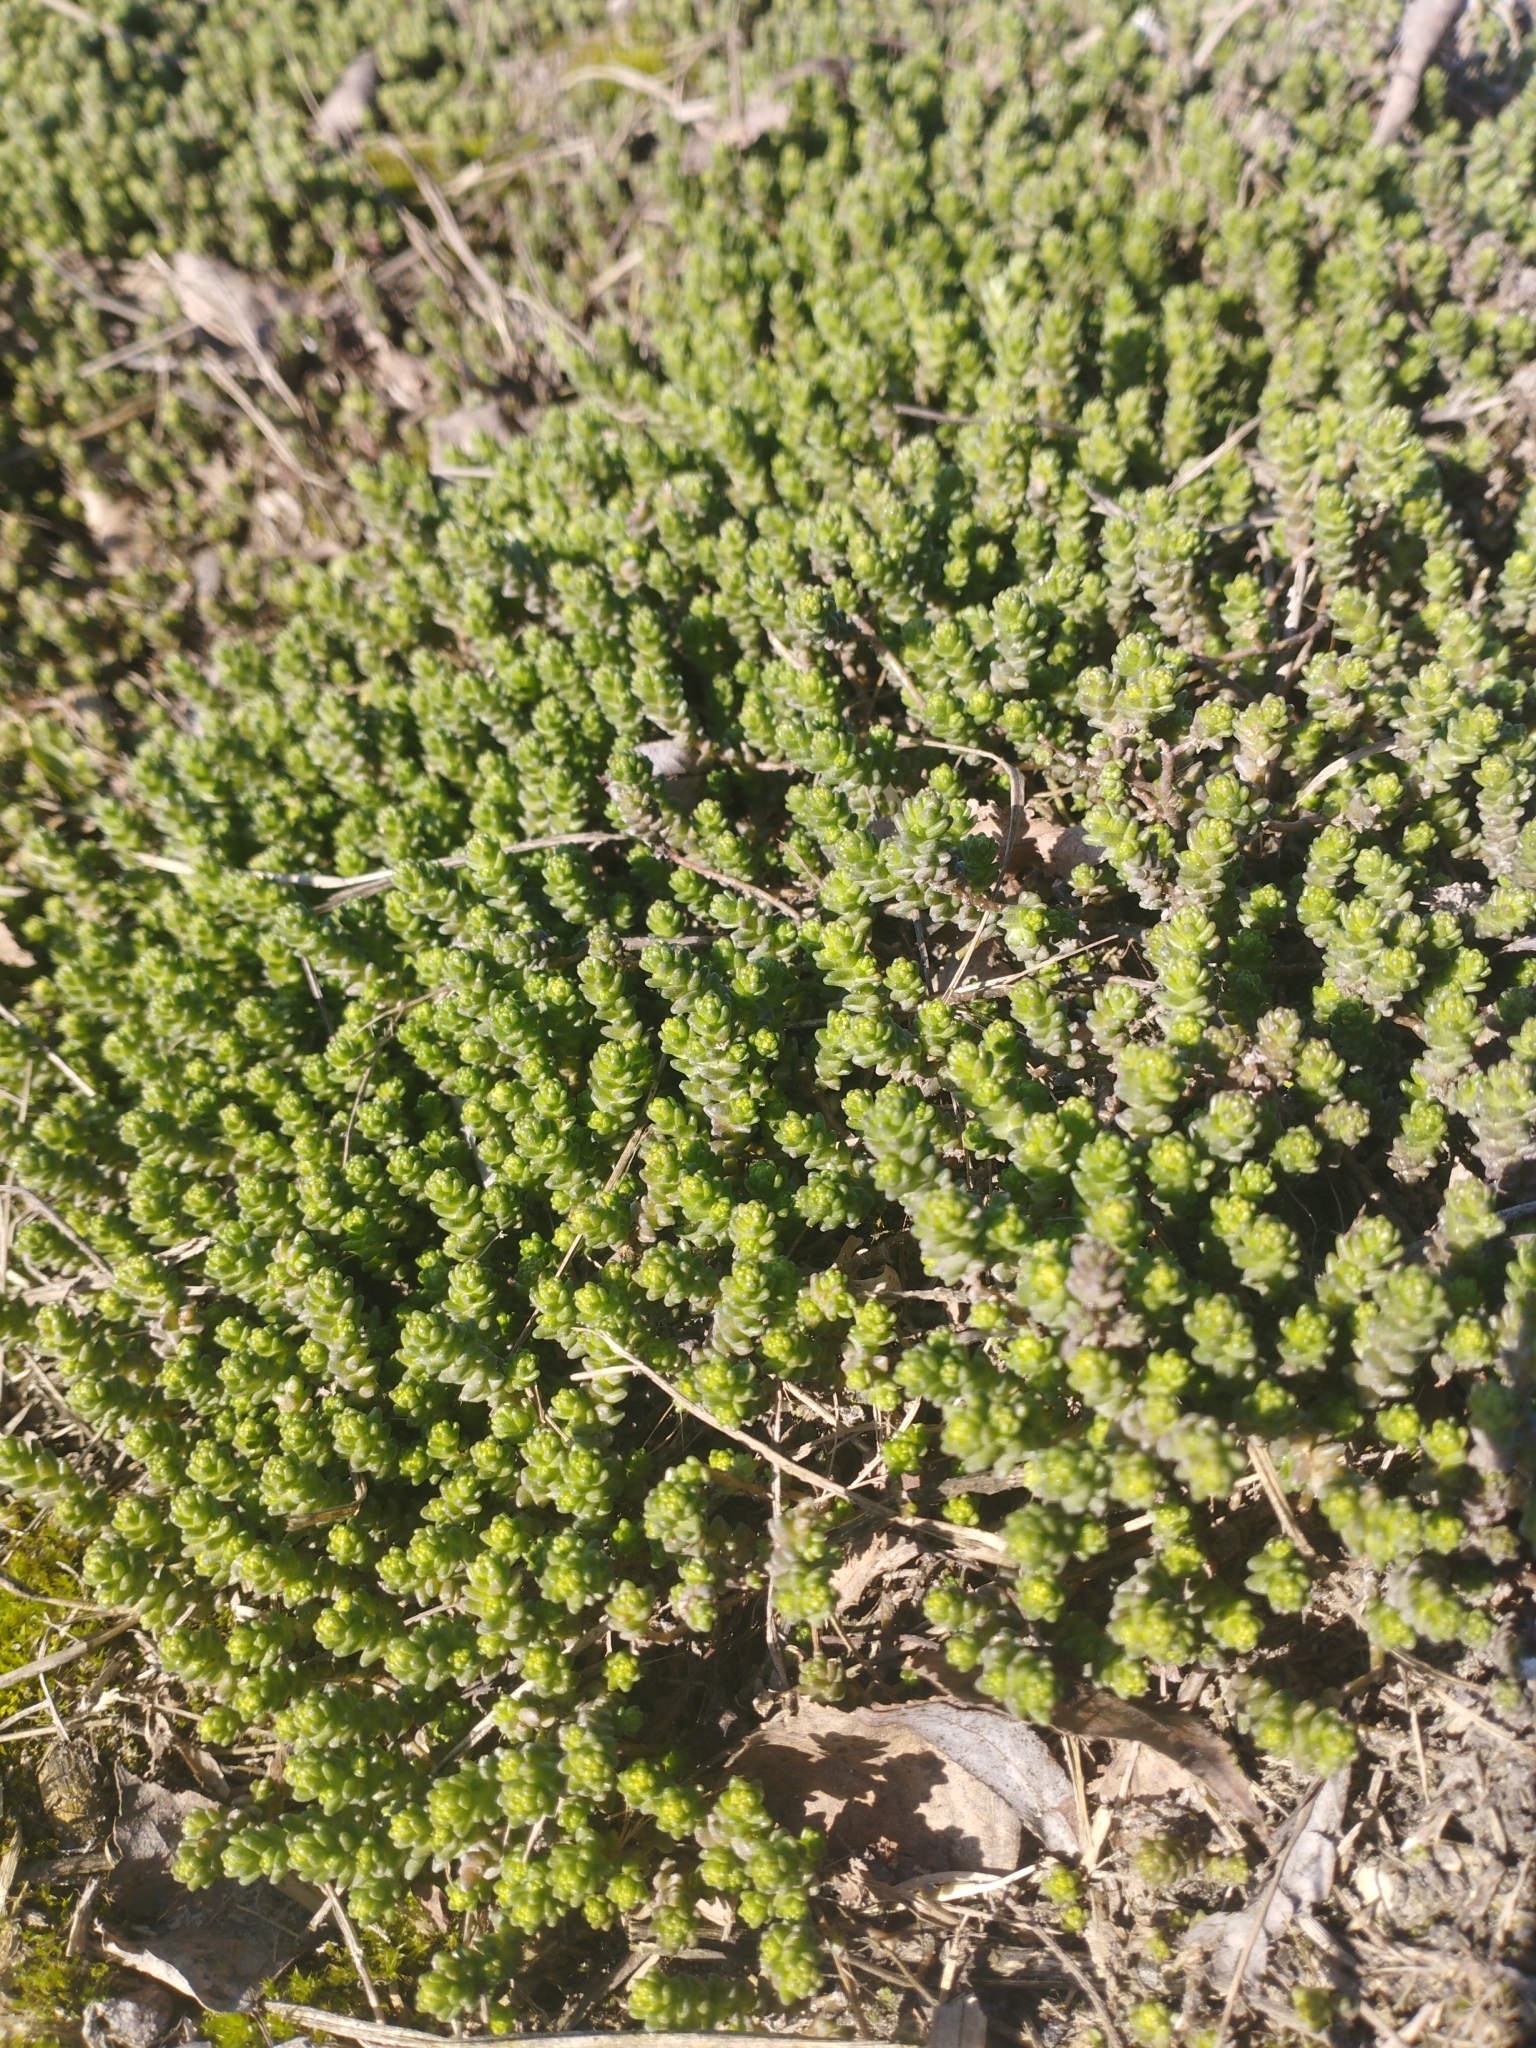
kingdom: Plantae
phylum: Tracheophyta
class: Magnoliopsida
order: Saxifragales
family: Crassulaceae
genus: Sedum
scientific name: Sedum acre
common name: Biting stonecrop
